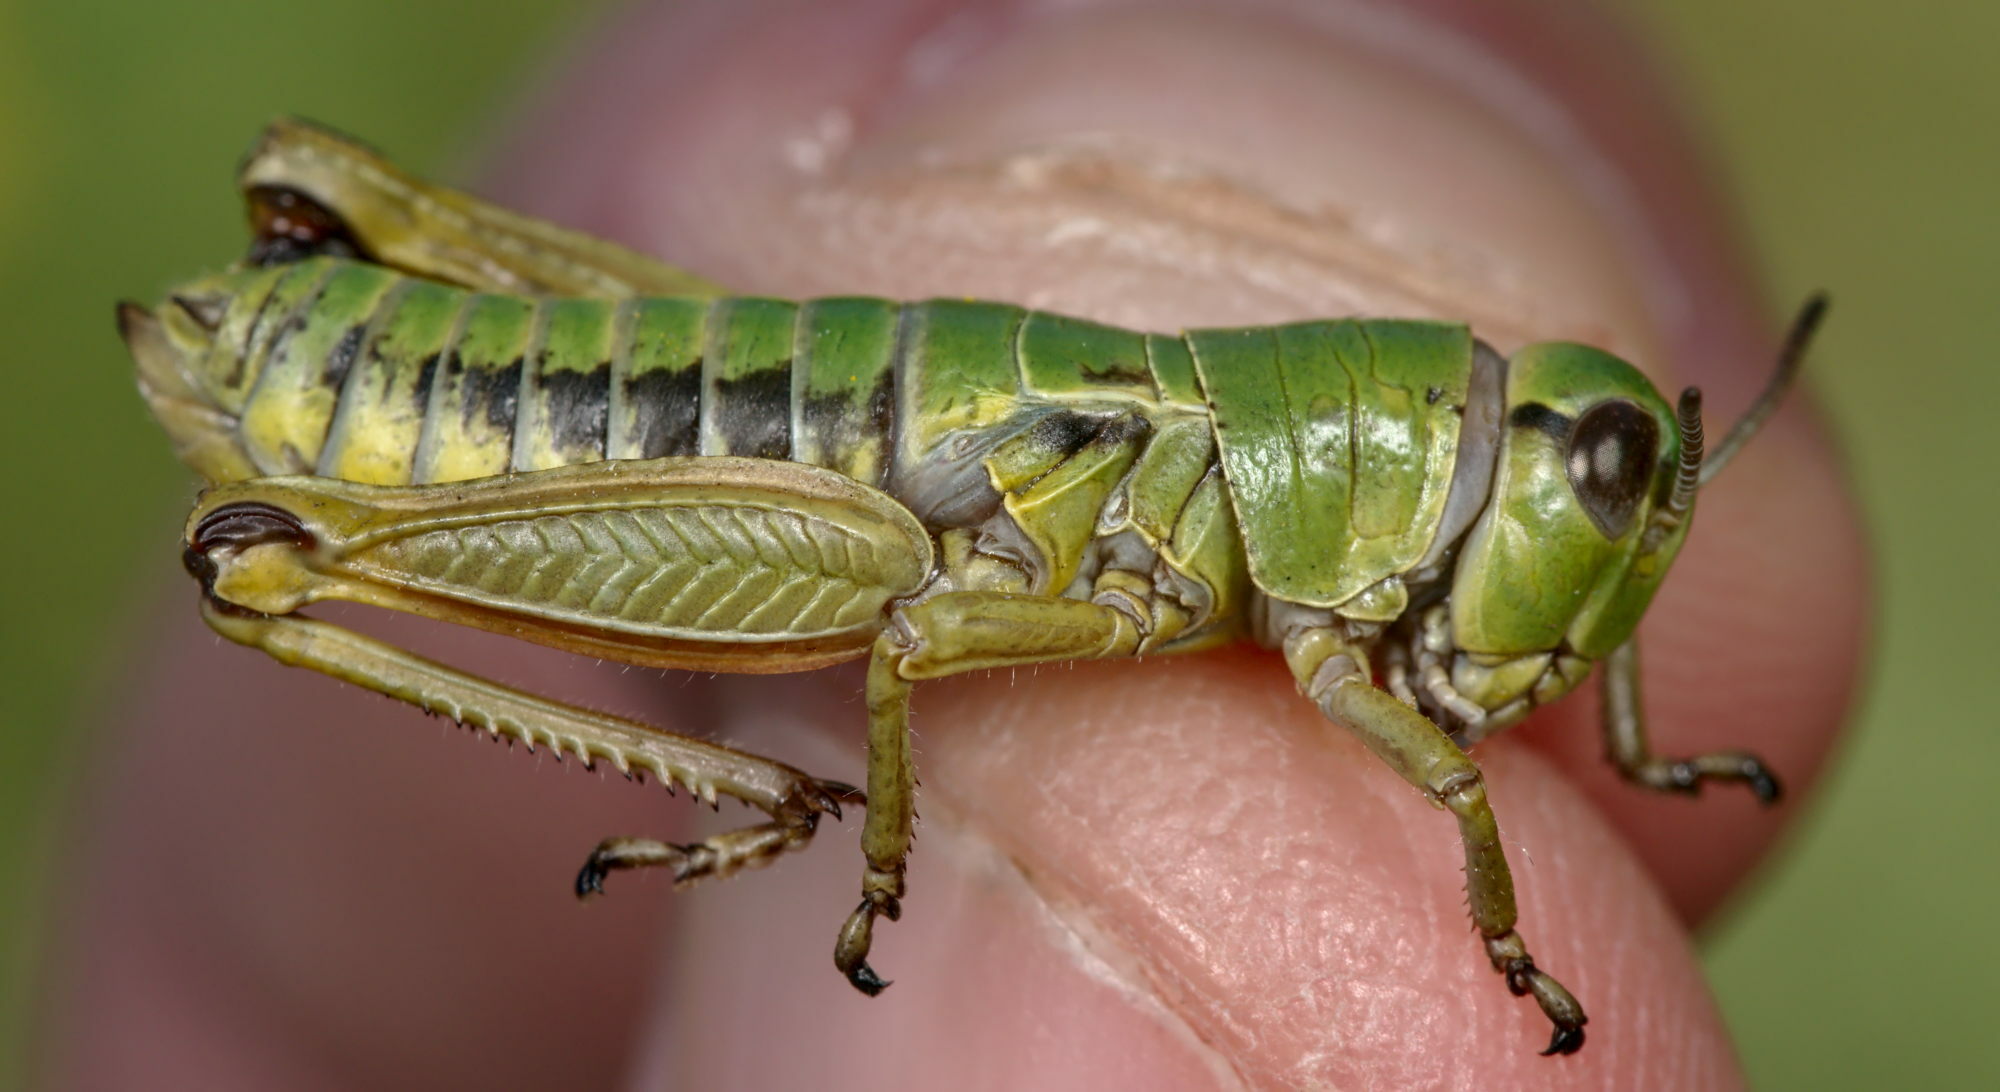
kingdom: Animalia
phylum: Arthropoda
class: Insecta
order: Orthoptera
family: Acrididae
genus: Epipodisma
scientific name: Epipodisma pedemontana
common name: Piedmont mountain grasshopper
